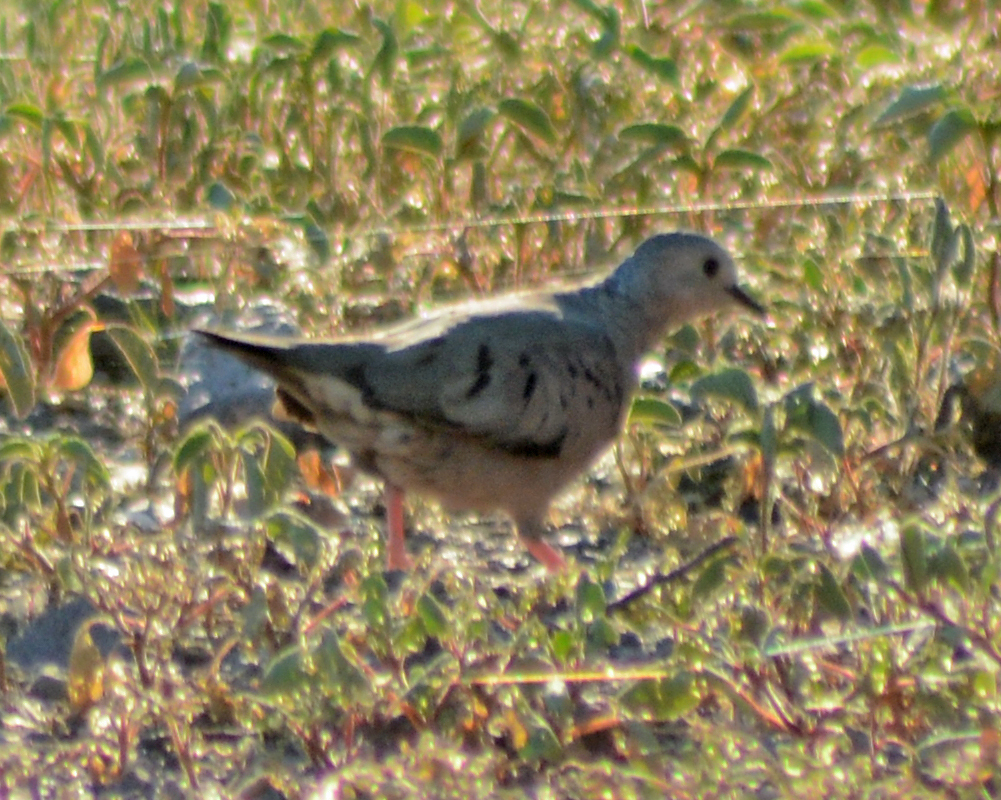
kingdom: Animalia
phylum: Chordata
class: Aves
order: Columbiformes
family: Columbidae
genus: Columbina
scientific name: Columbina passerina
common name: Common ground-dove
